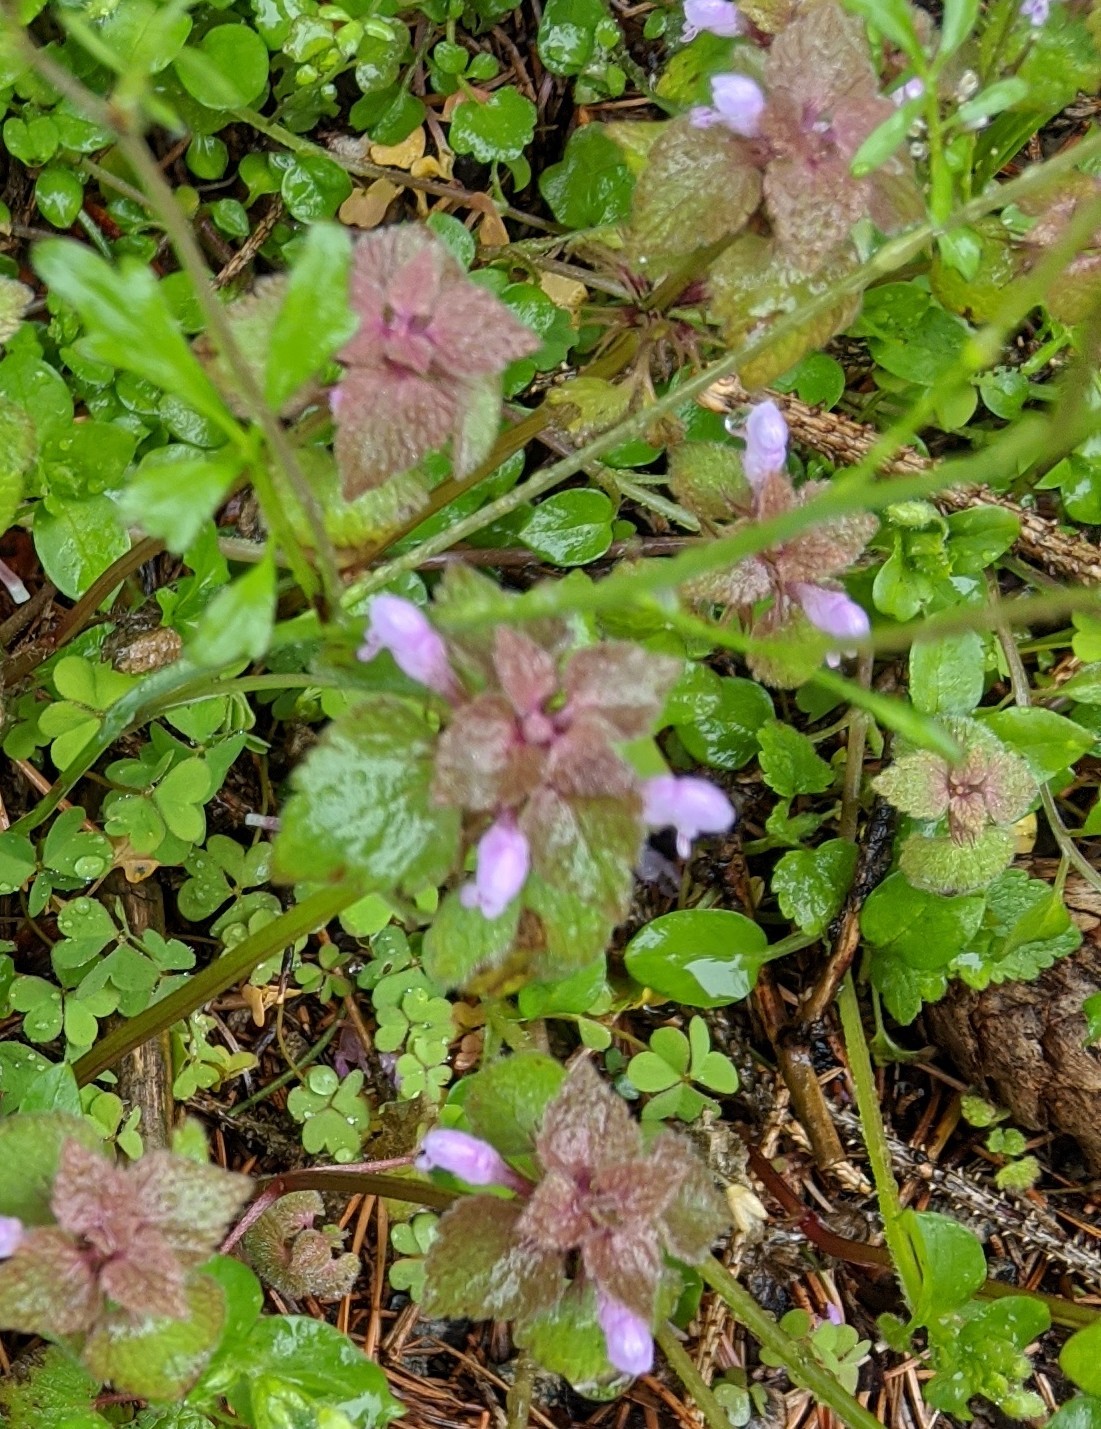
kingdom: Plantae
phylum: Tracheophyta
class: Magnoliopsida
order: Lamiales
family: Lamiaceae
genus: Lamium
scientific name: Lamium purpureum
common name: Red dead-nettle
